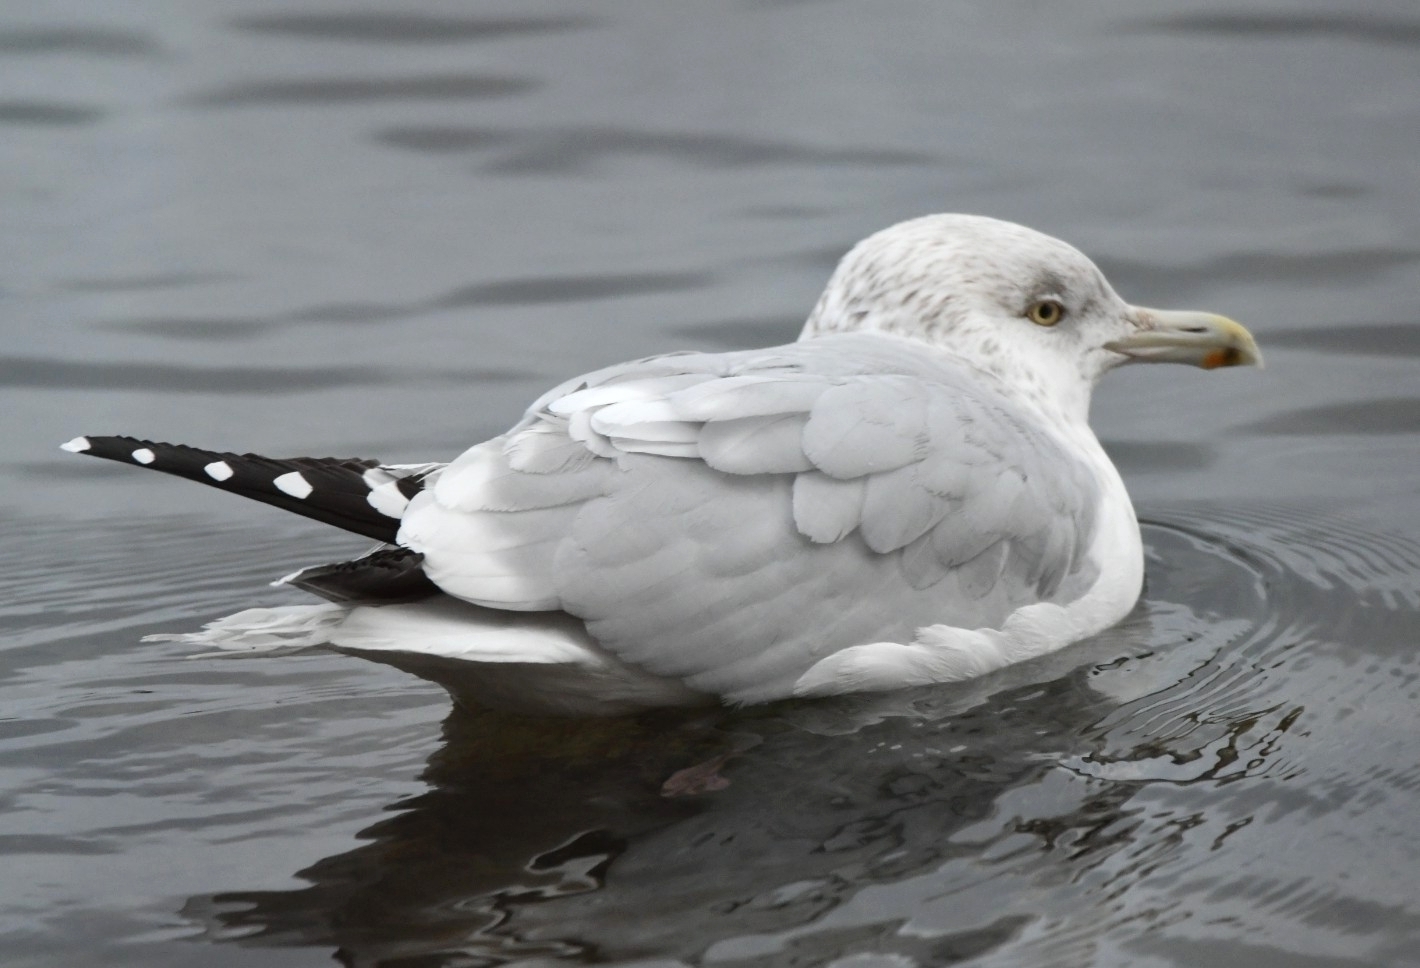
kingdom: Animalia
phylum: Chordata
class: Aves
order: Charadriiformes
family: Laridae
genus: Larus
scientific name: Larus argentatus
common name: Herring gull
